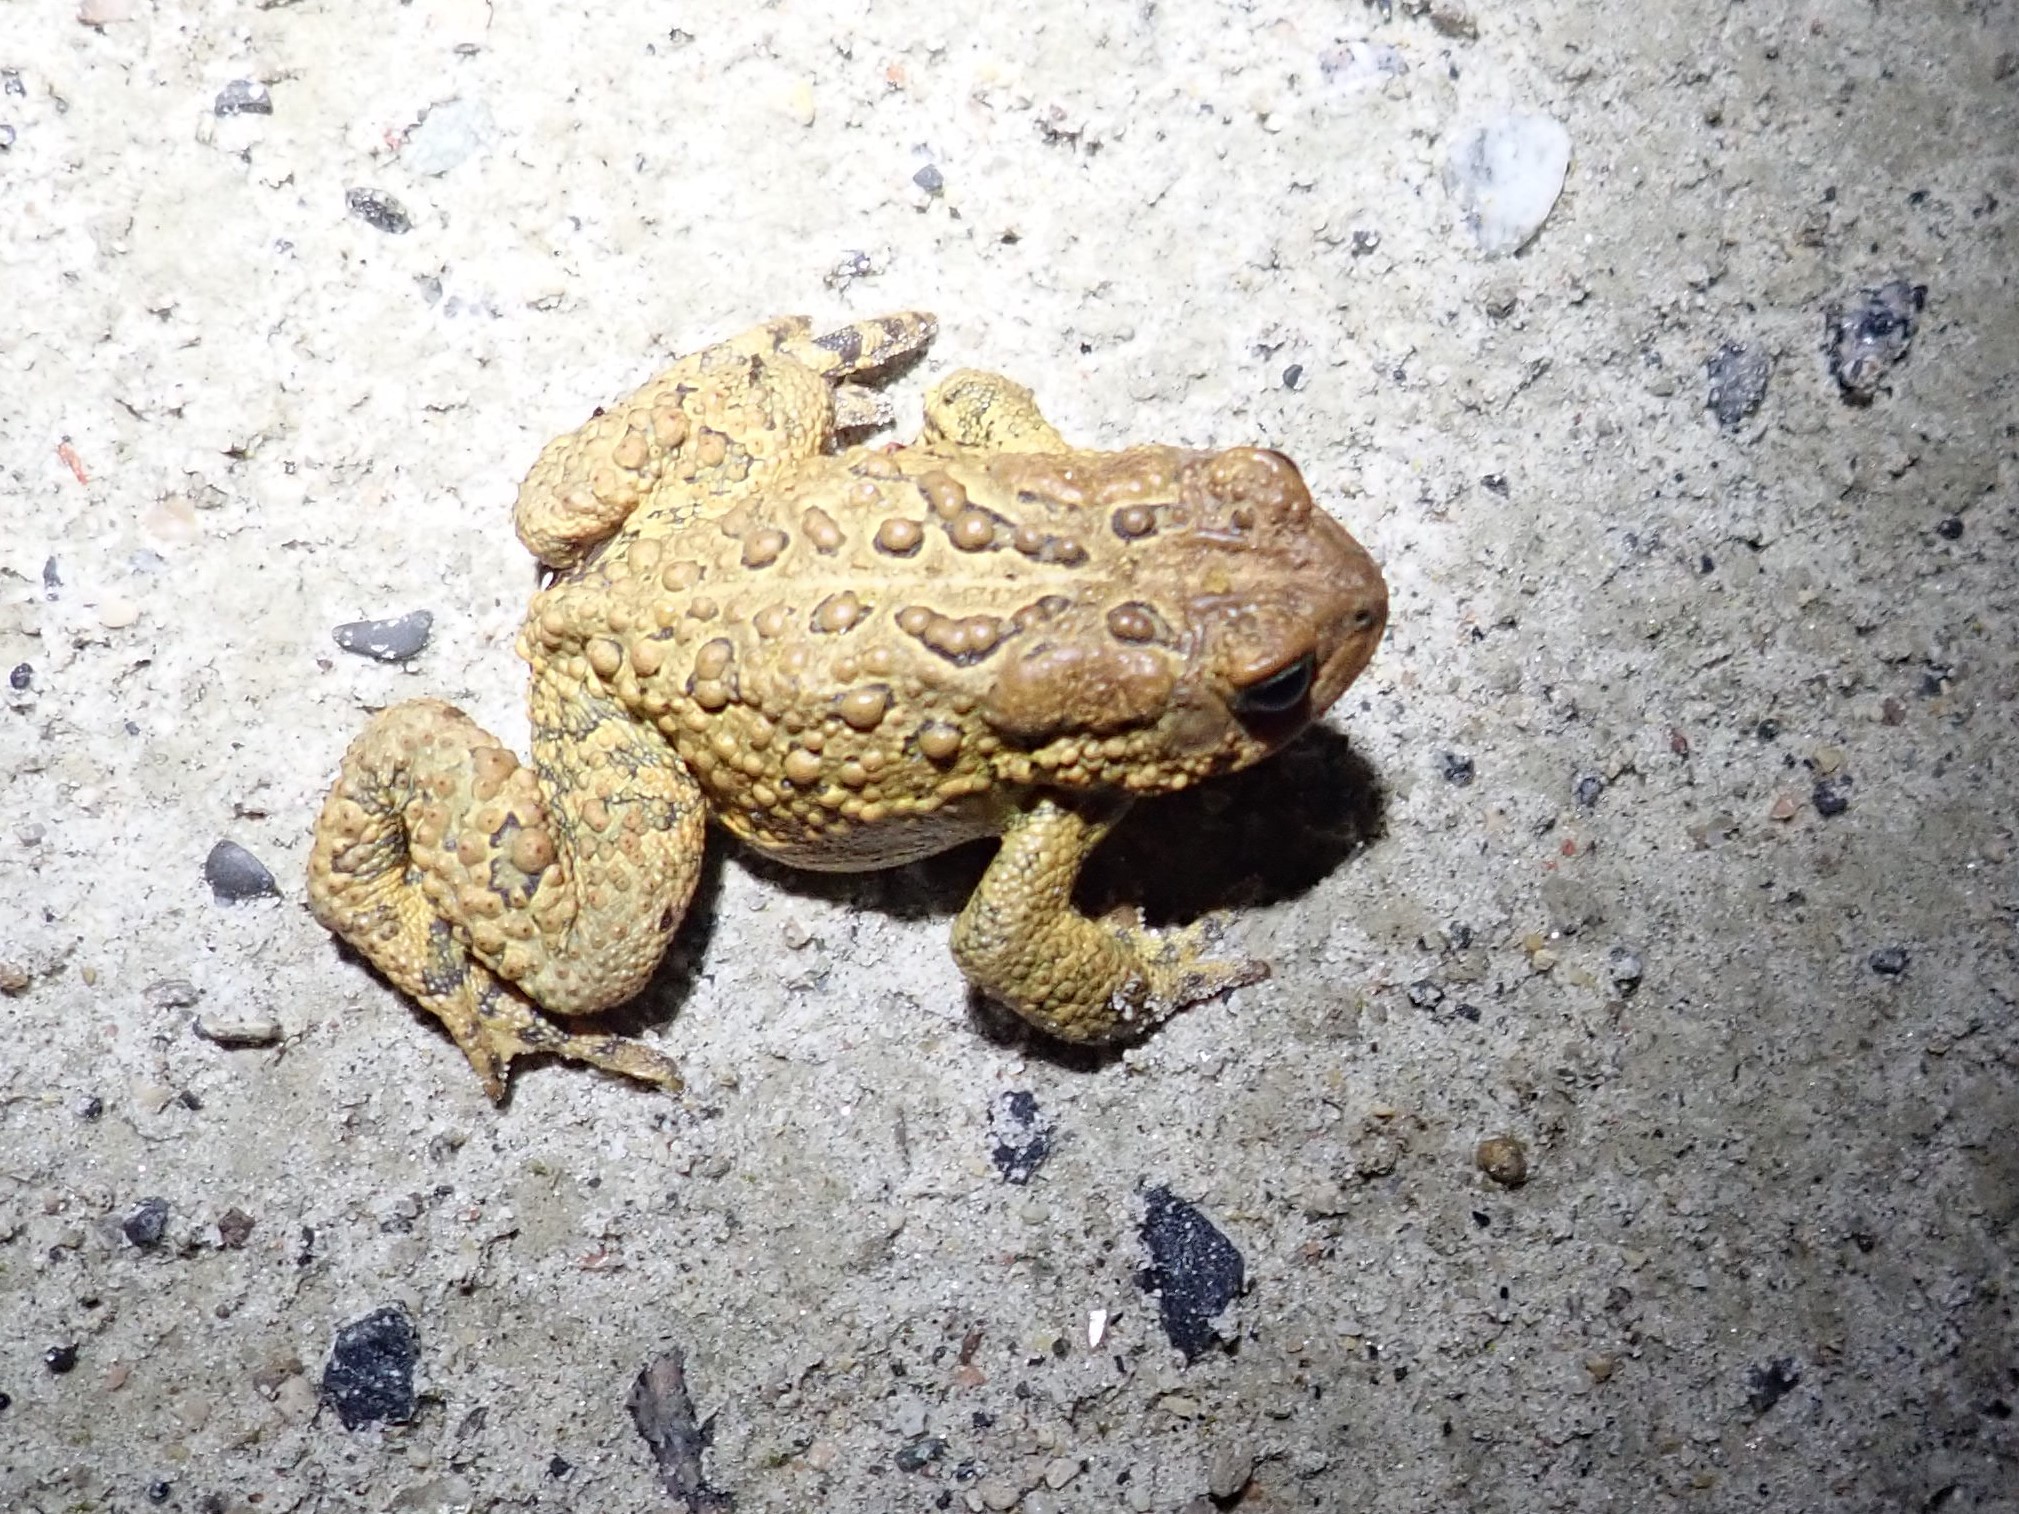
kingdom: Animalia
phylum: Chordata
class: Amphibia
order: Anura
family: Bufonidae
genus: Anaxyrus
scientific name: Anaxyrus americanus
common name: American toad
